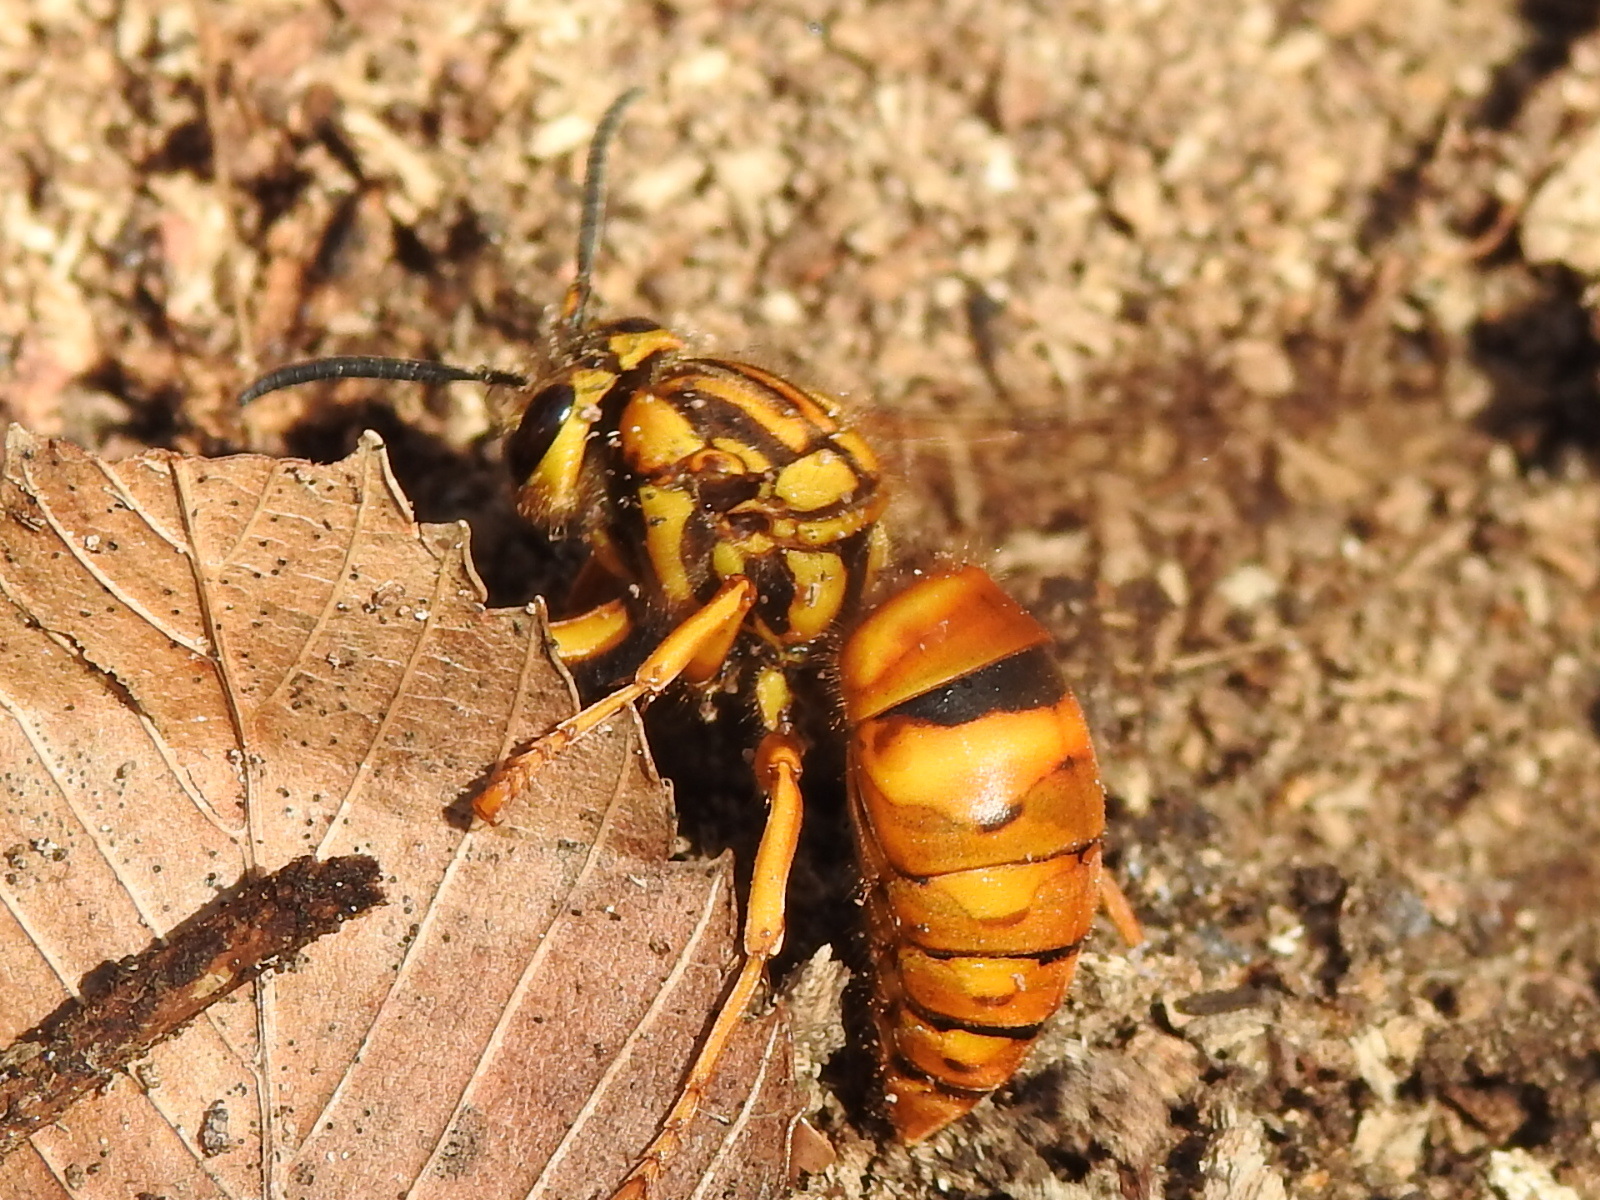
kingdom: Animalia
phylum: Arthropoda
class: Insecta
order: Hymenoptera
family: Vespidae
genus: Vespula
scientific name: Vespula squamosa
